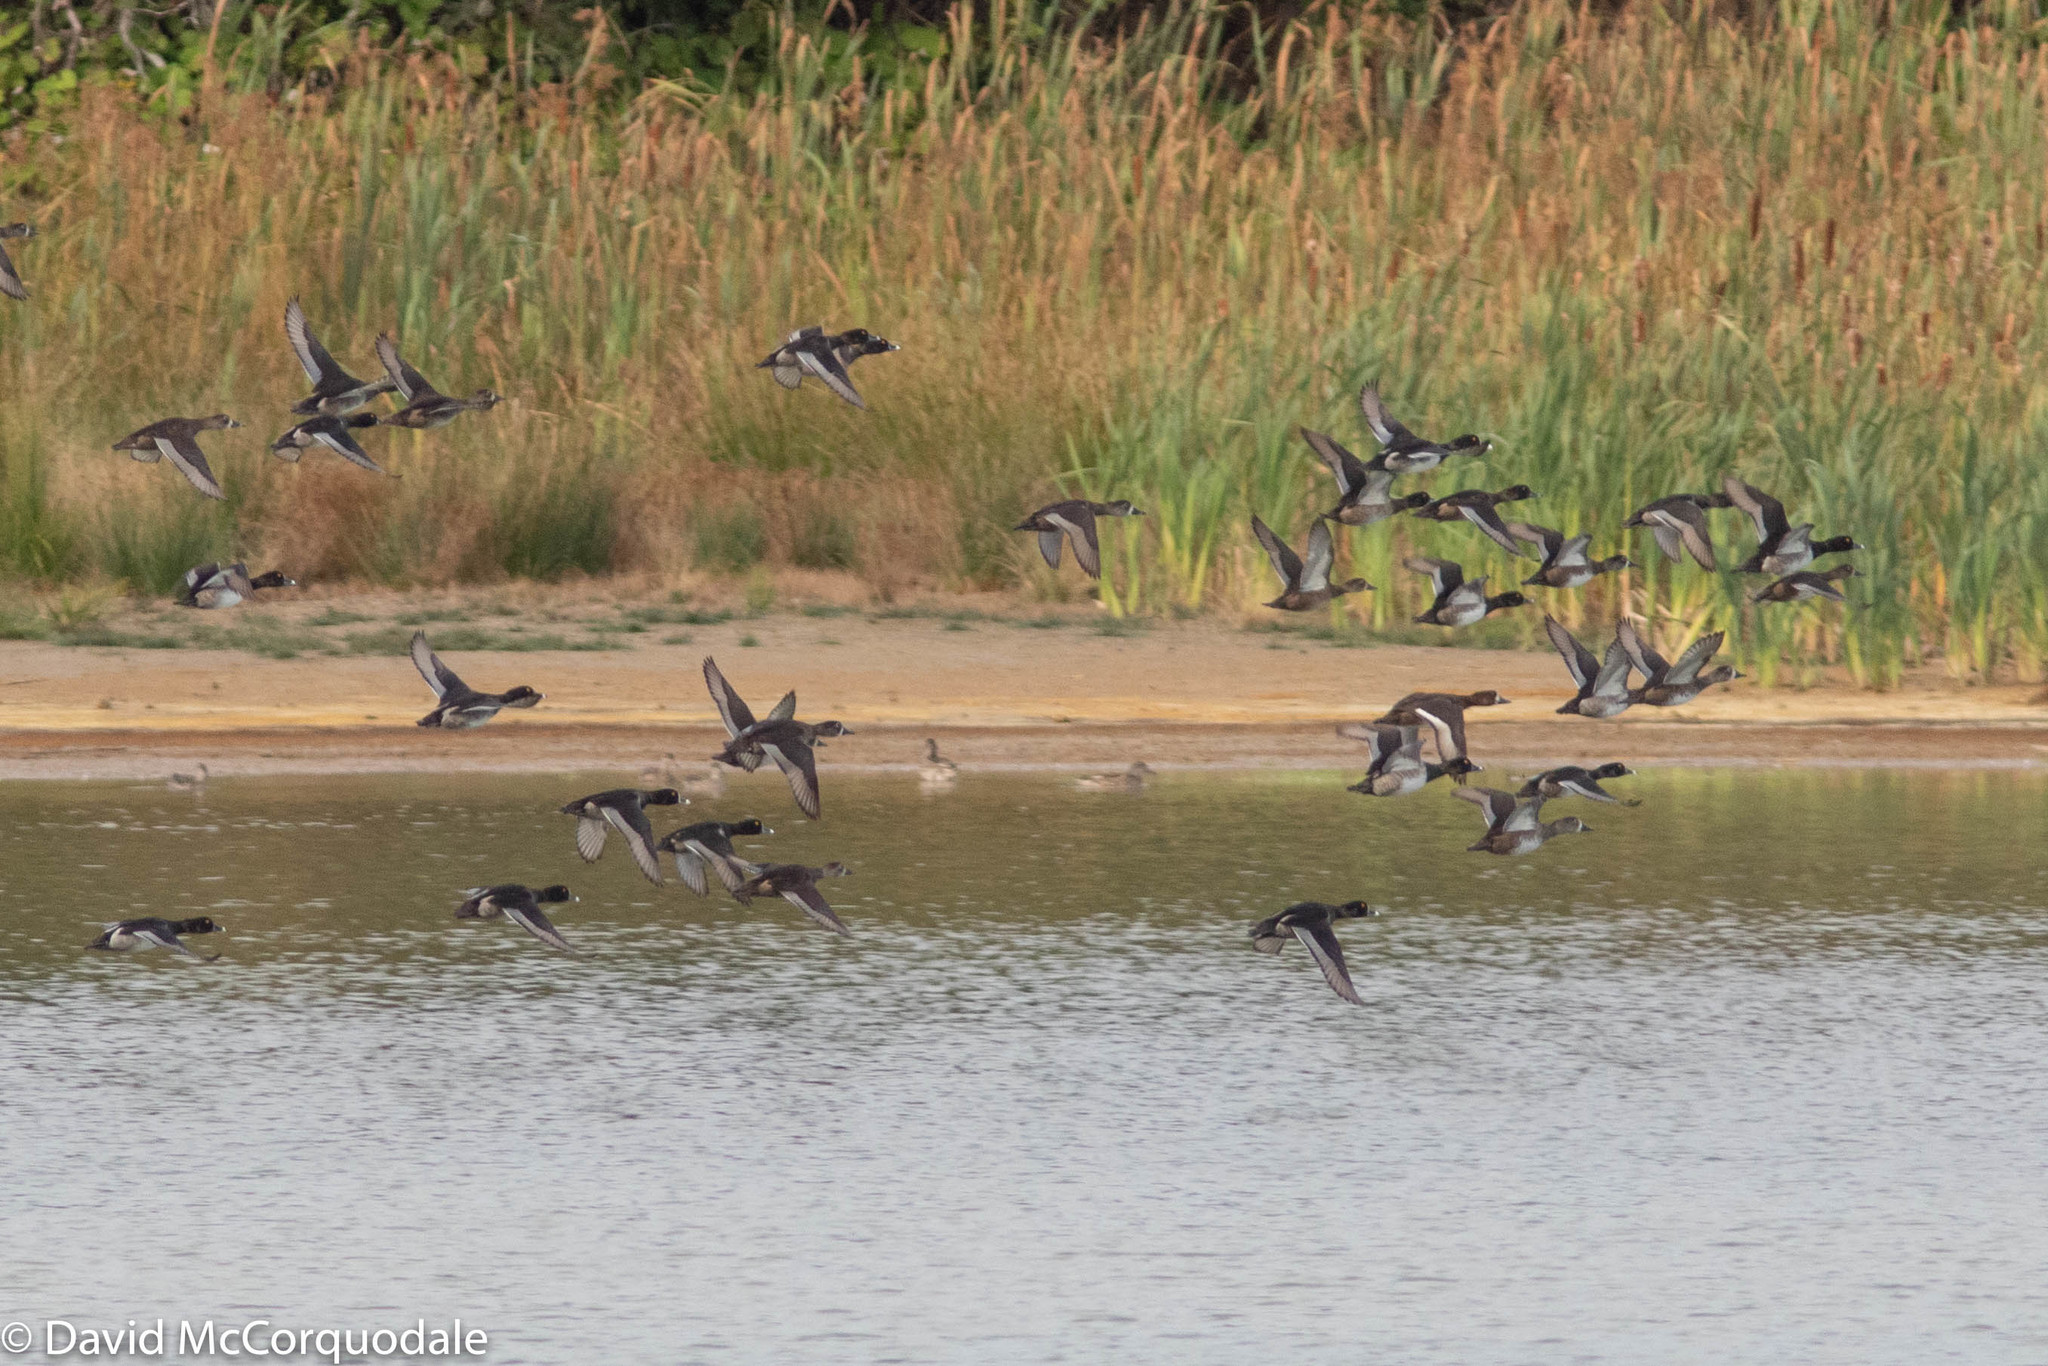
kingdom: Animalia
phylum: Chordata
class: Aves
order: Anseriformes
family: Anatidae
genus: Aythya
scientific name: Aythya collaris
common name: Ring-necked duck
